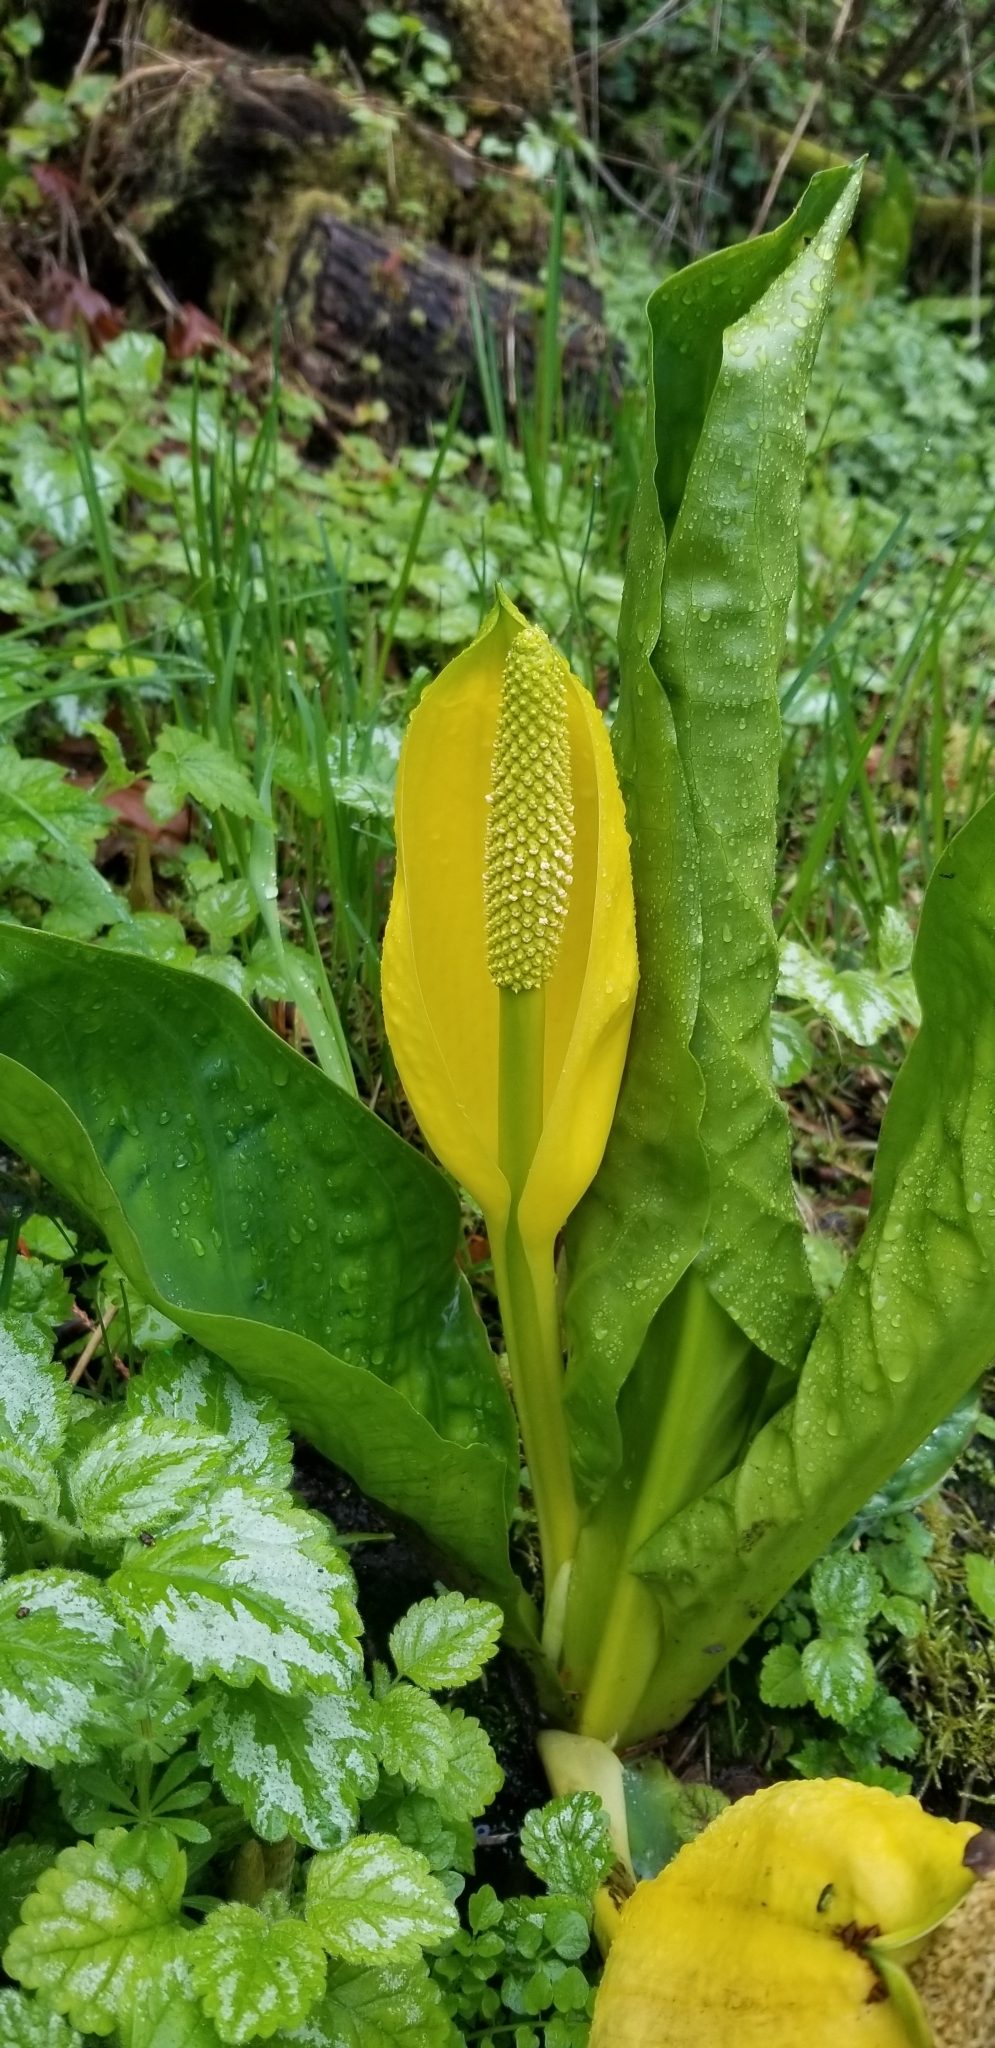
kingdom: Plantae
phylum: Tracheophyta
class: Liliopsida
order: Alismatales
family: Araceae
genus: Lysichiton
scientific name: Lysichiton americanus
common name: American skunk cabbage
